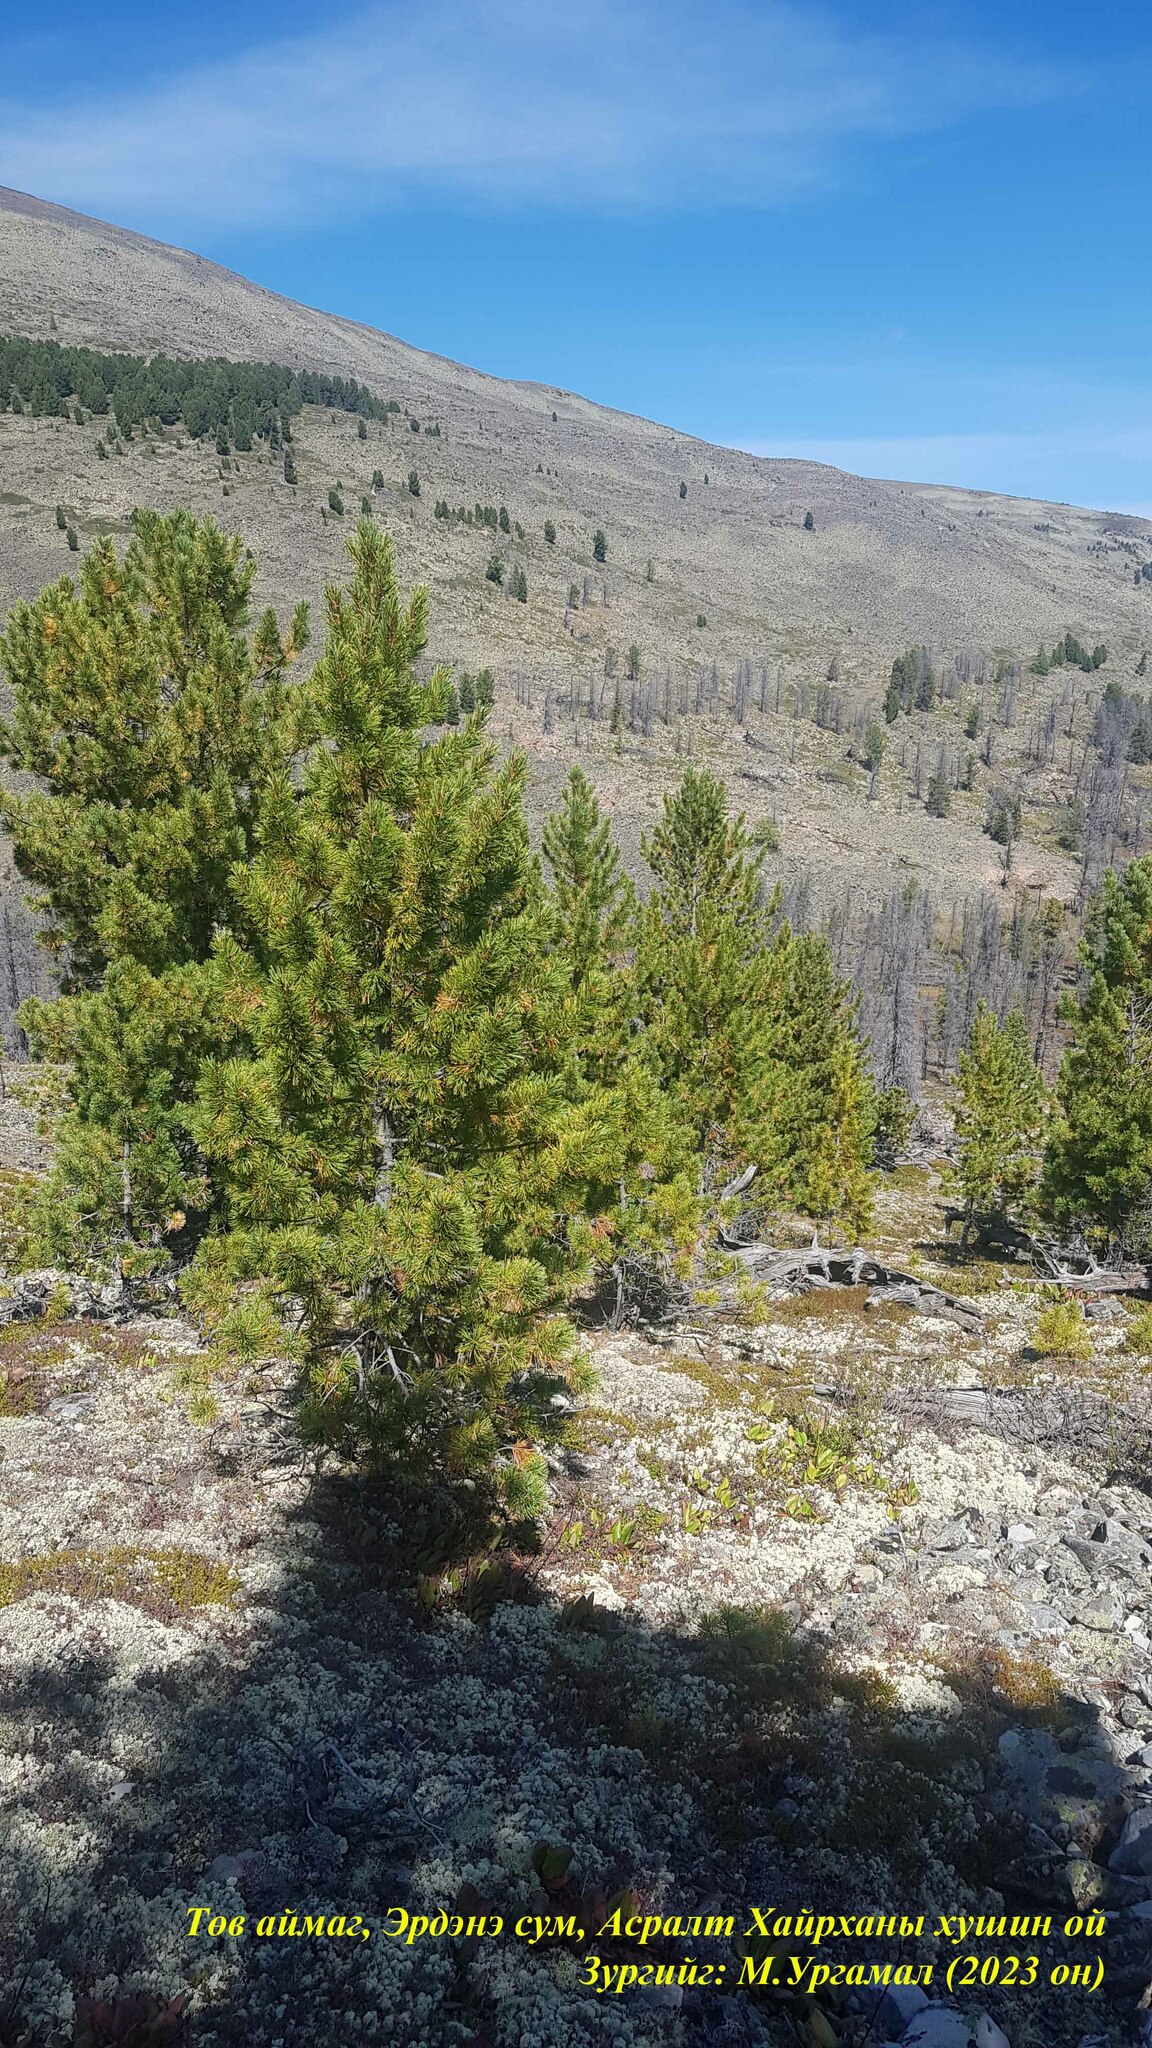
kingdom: Plantae
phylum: Tracheophyta
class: Pinopsida
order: Pinales
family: Pinaceae
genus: Pinus
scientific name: Pinus sibirica
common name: Siberian pine
